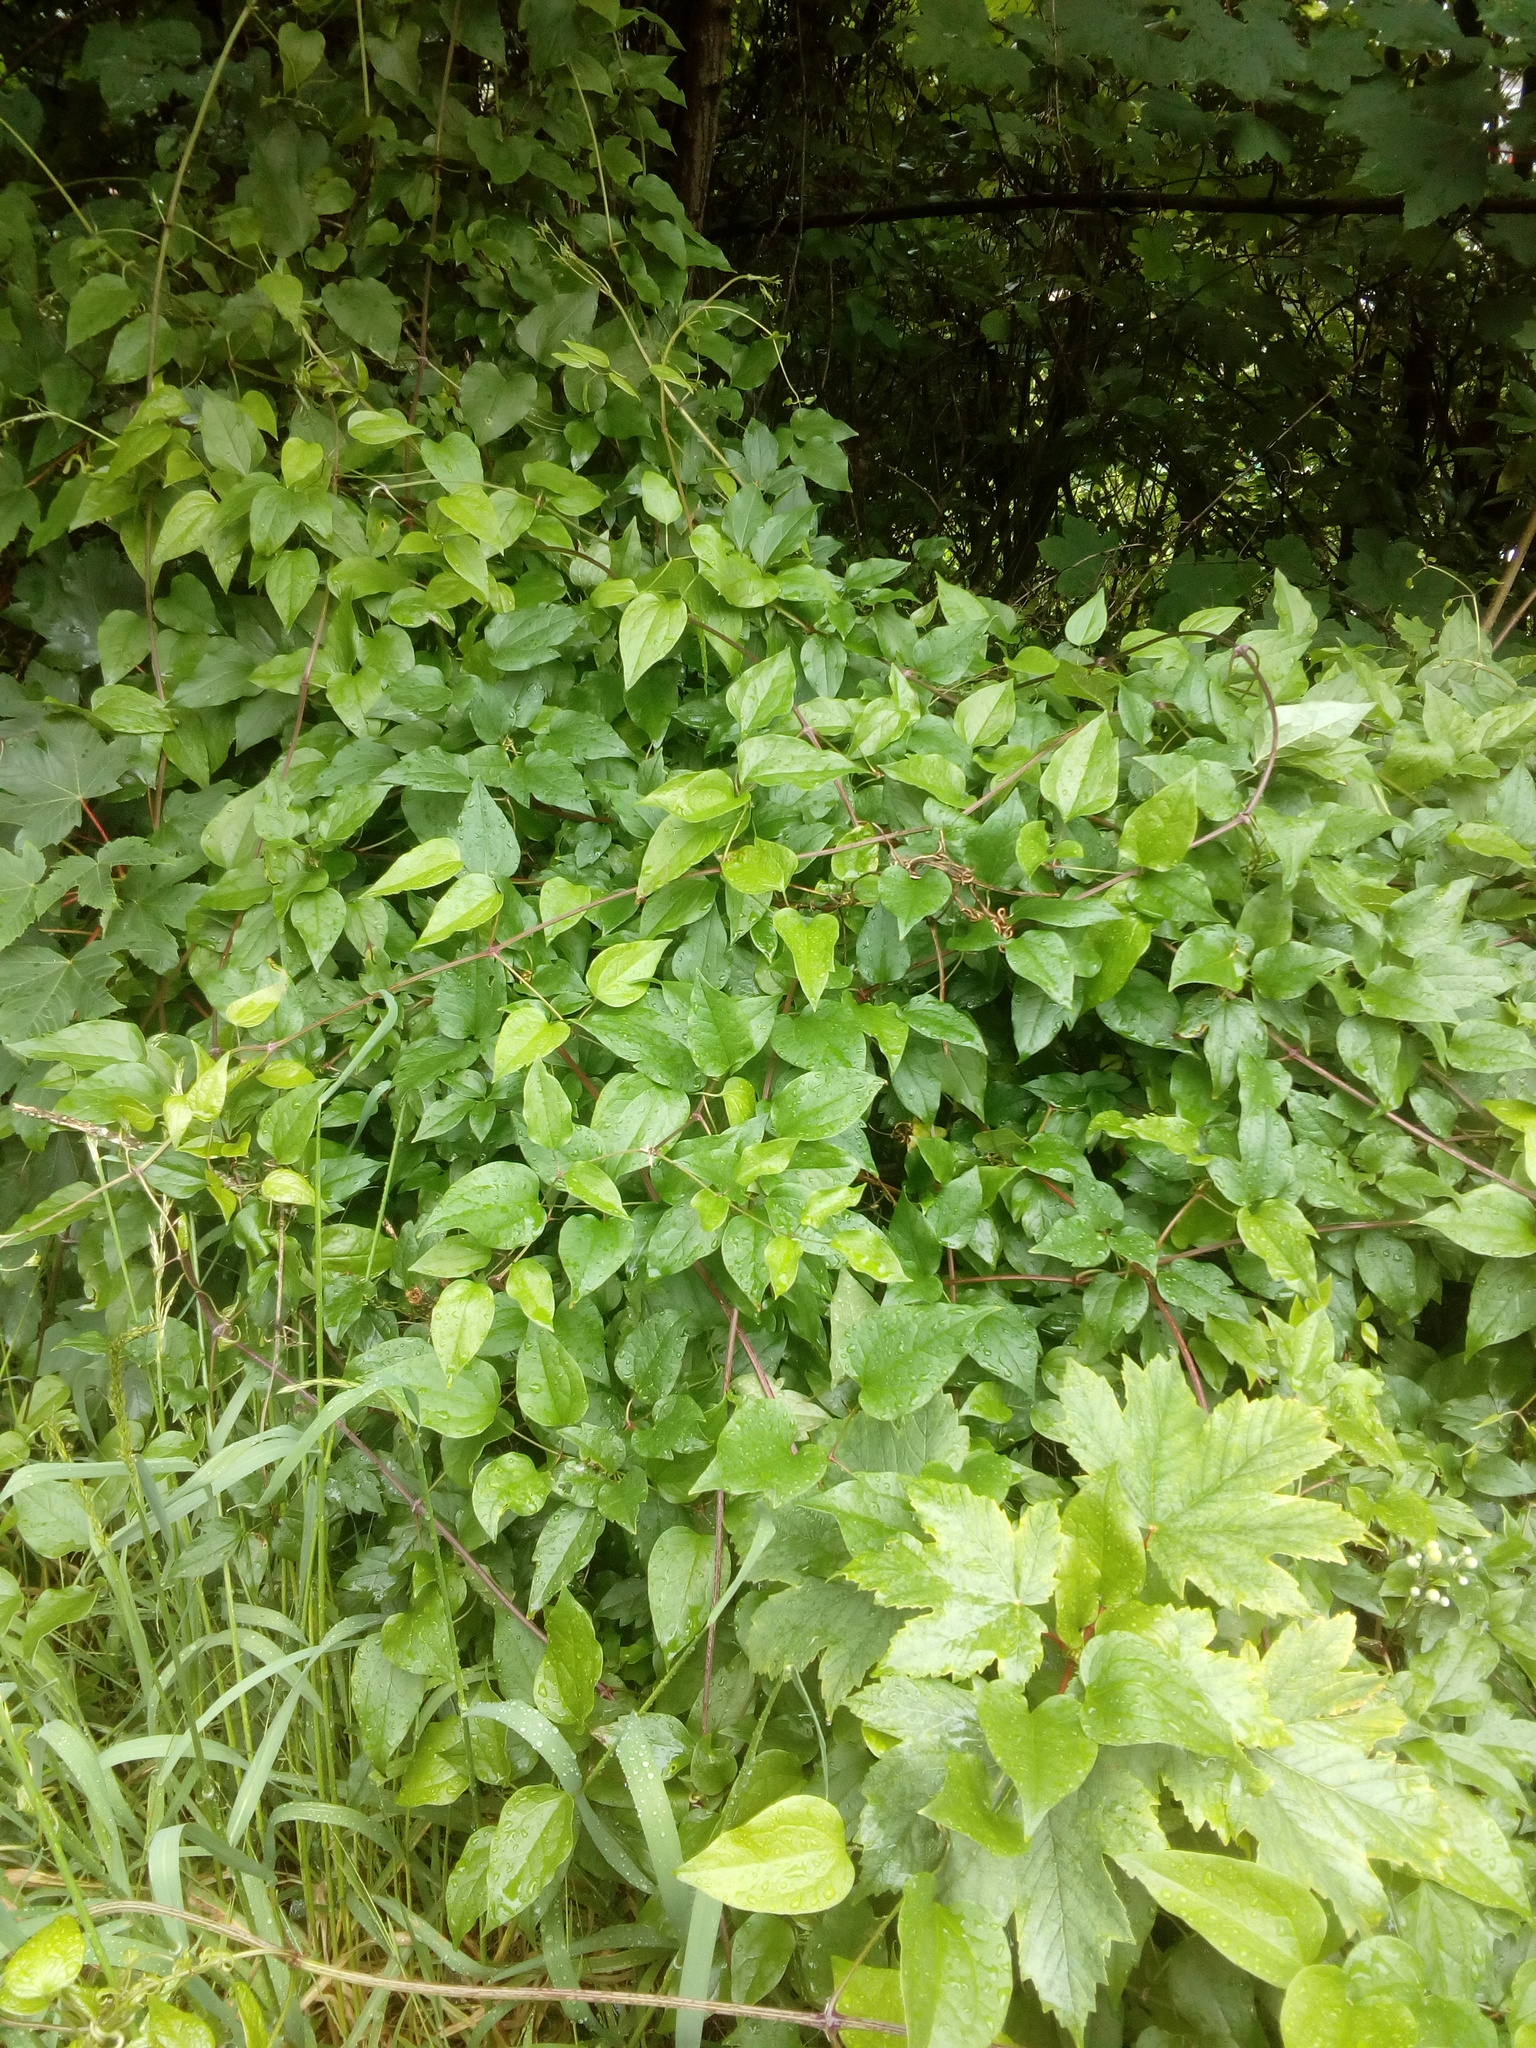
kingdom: Plantae
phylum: Tracheophyta
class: Magnoliopsida
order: Ranunculales
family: Ranunculaceae
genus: Clematis
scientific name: Clematis vitalba
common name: Evergreen clematis
